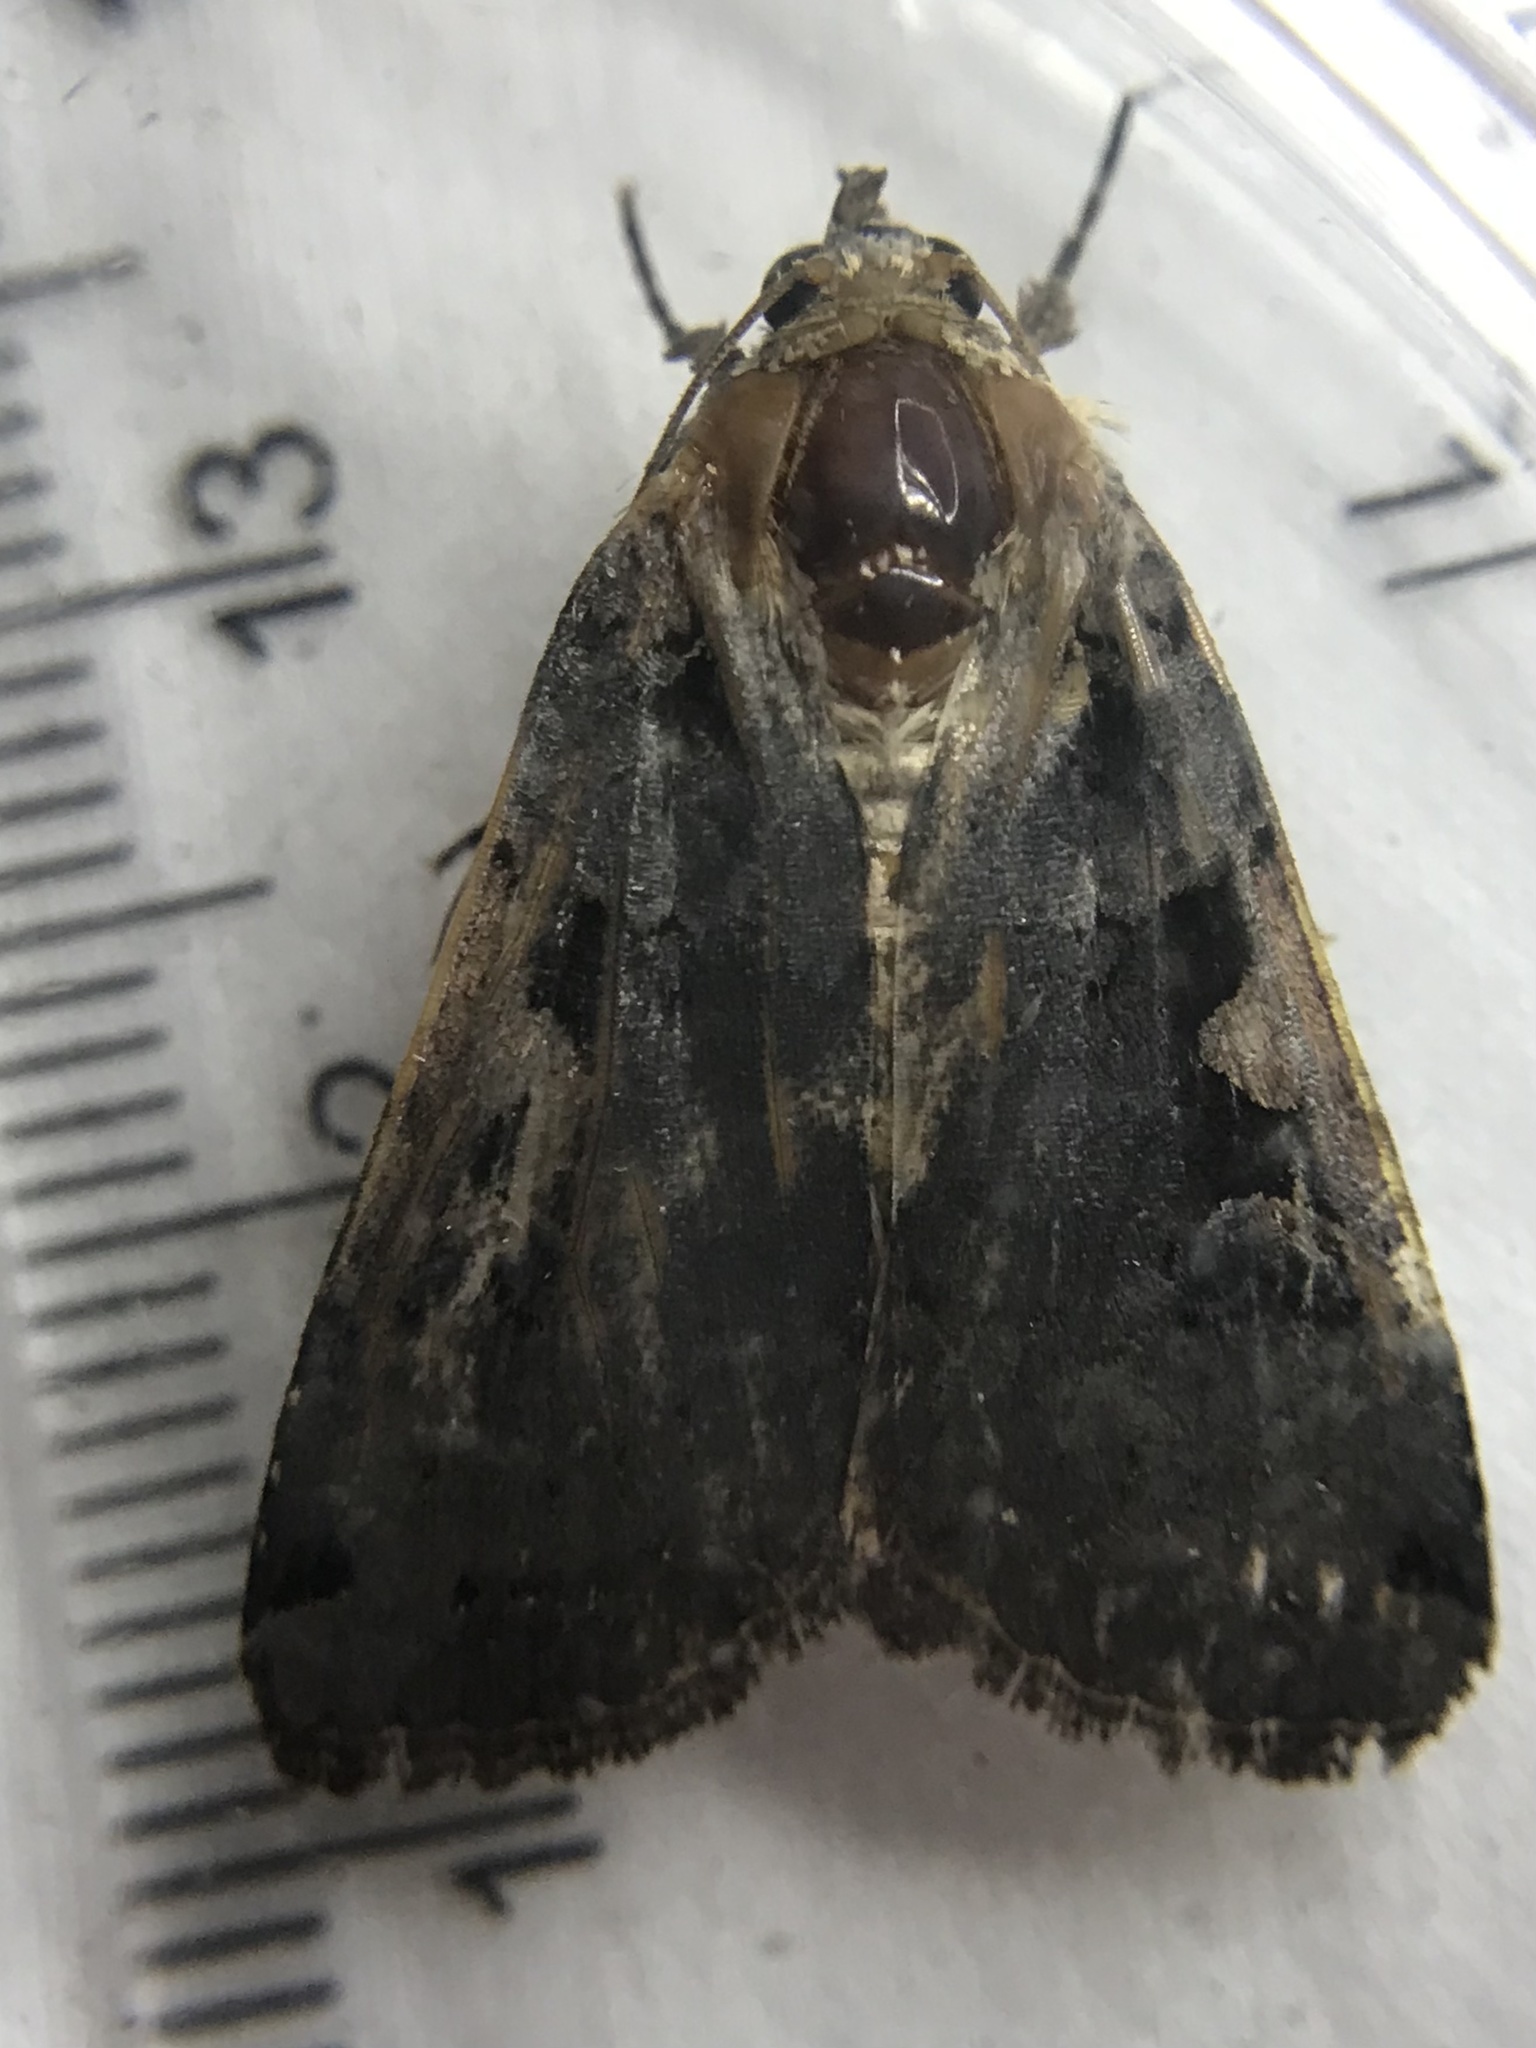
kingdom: Animalia
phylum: Arthropoda
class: Insecta
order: Lepidoptera
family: Noctuidae
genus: Xestia
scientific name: Xestia
